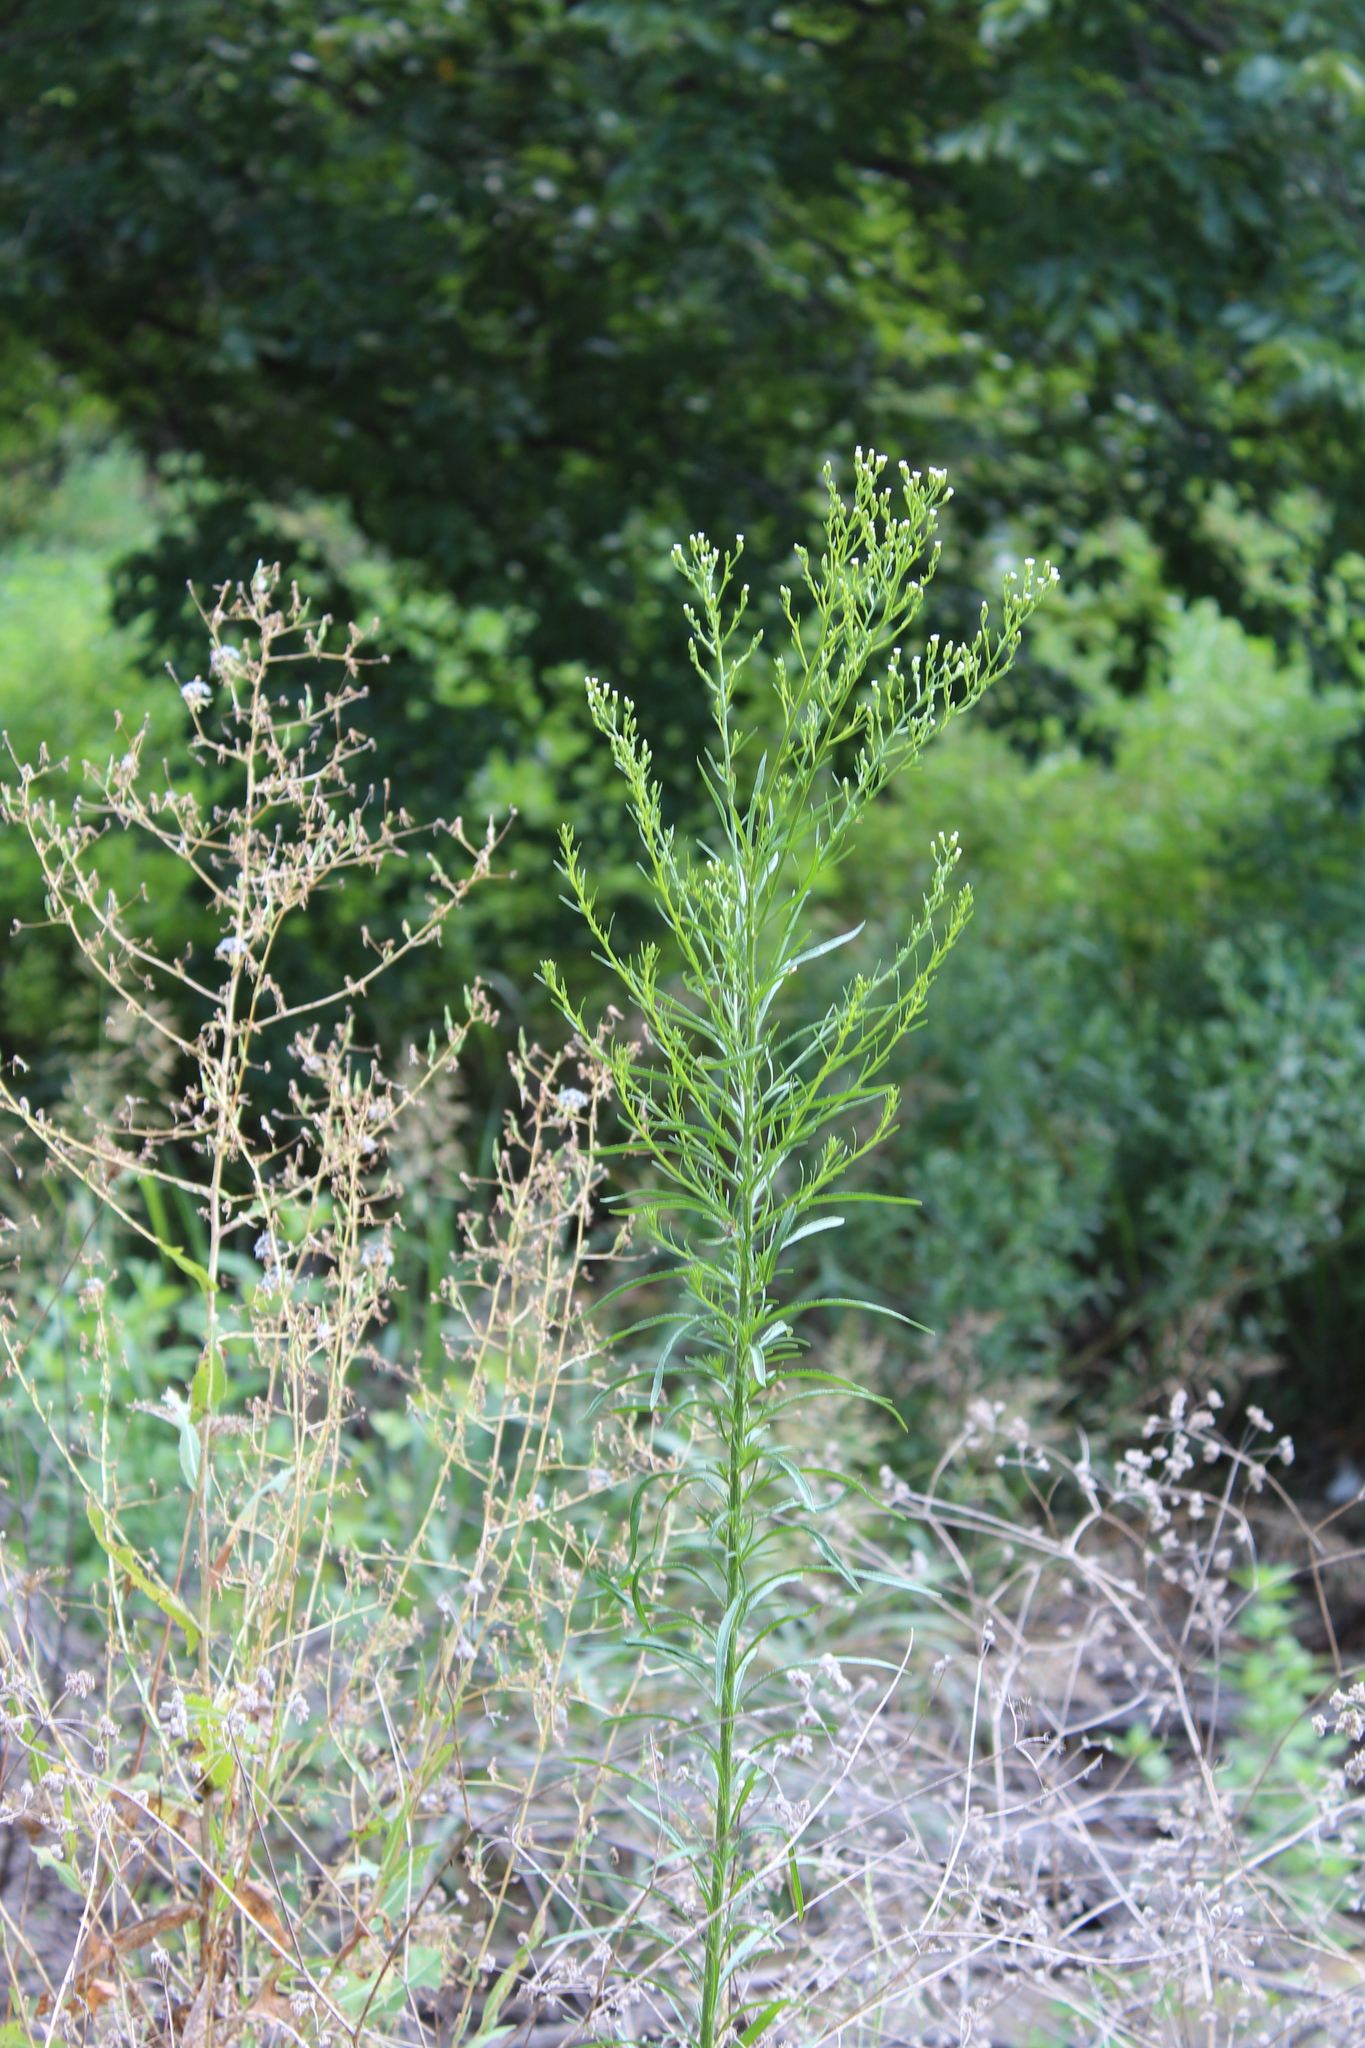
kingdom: Plantae
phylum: Tracheophyta
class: Magnoliopsida
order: Asterales
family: Asteraceae
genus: Erigeron
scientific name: Erigeron canadensis
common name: Canadian fleabane
